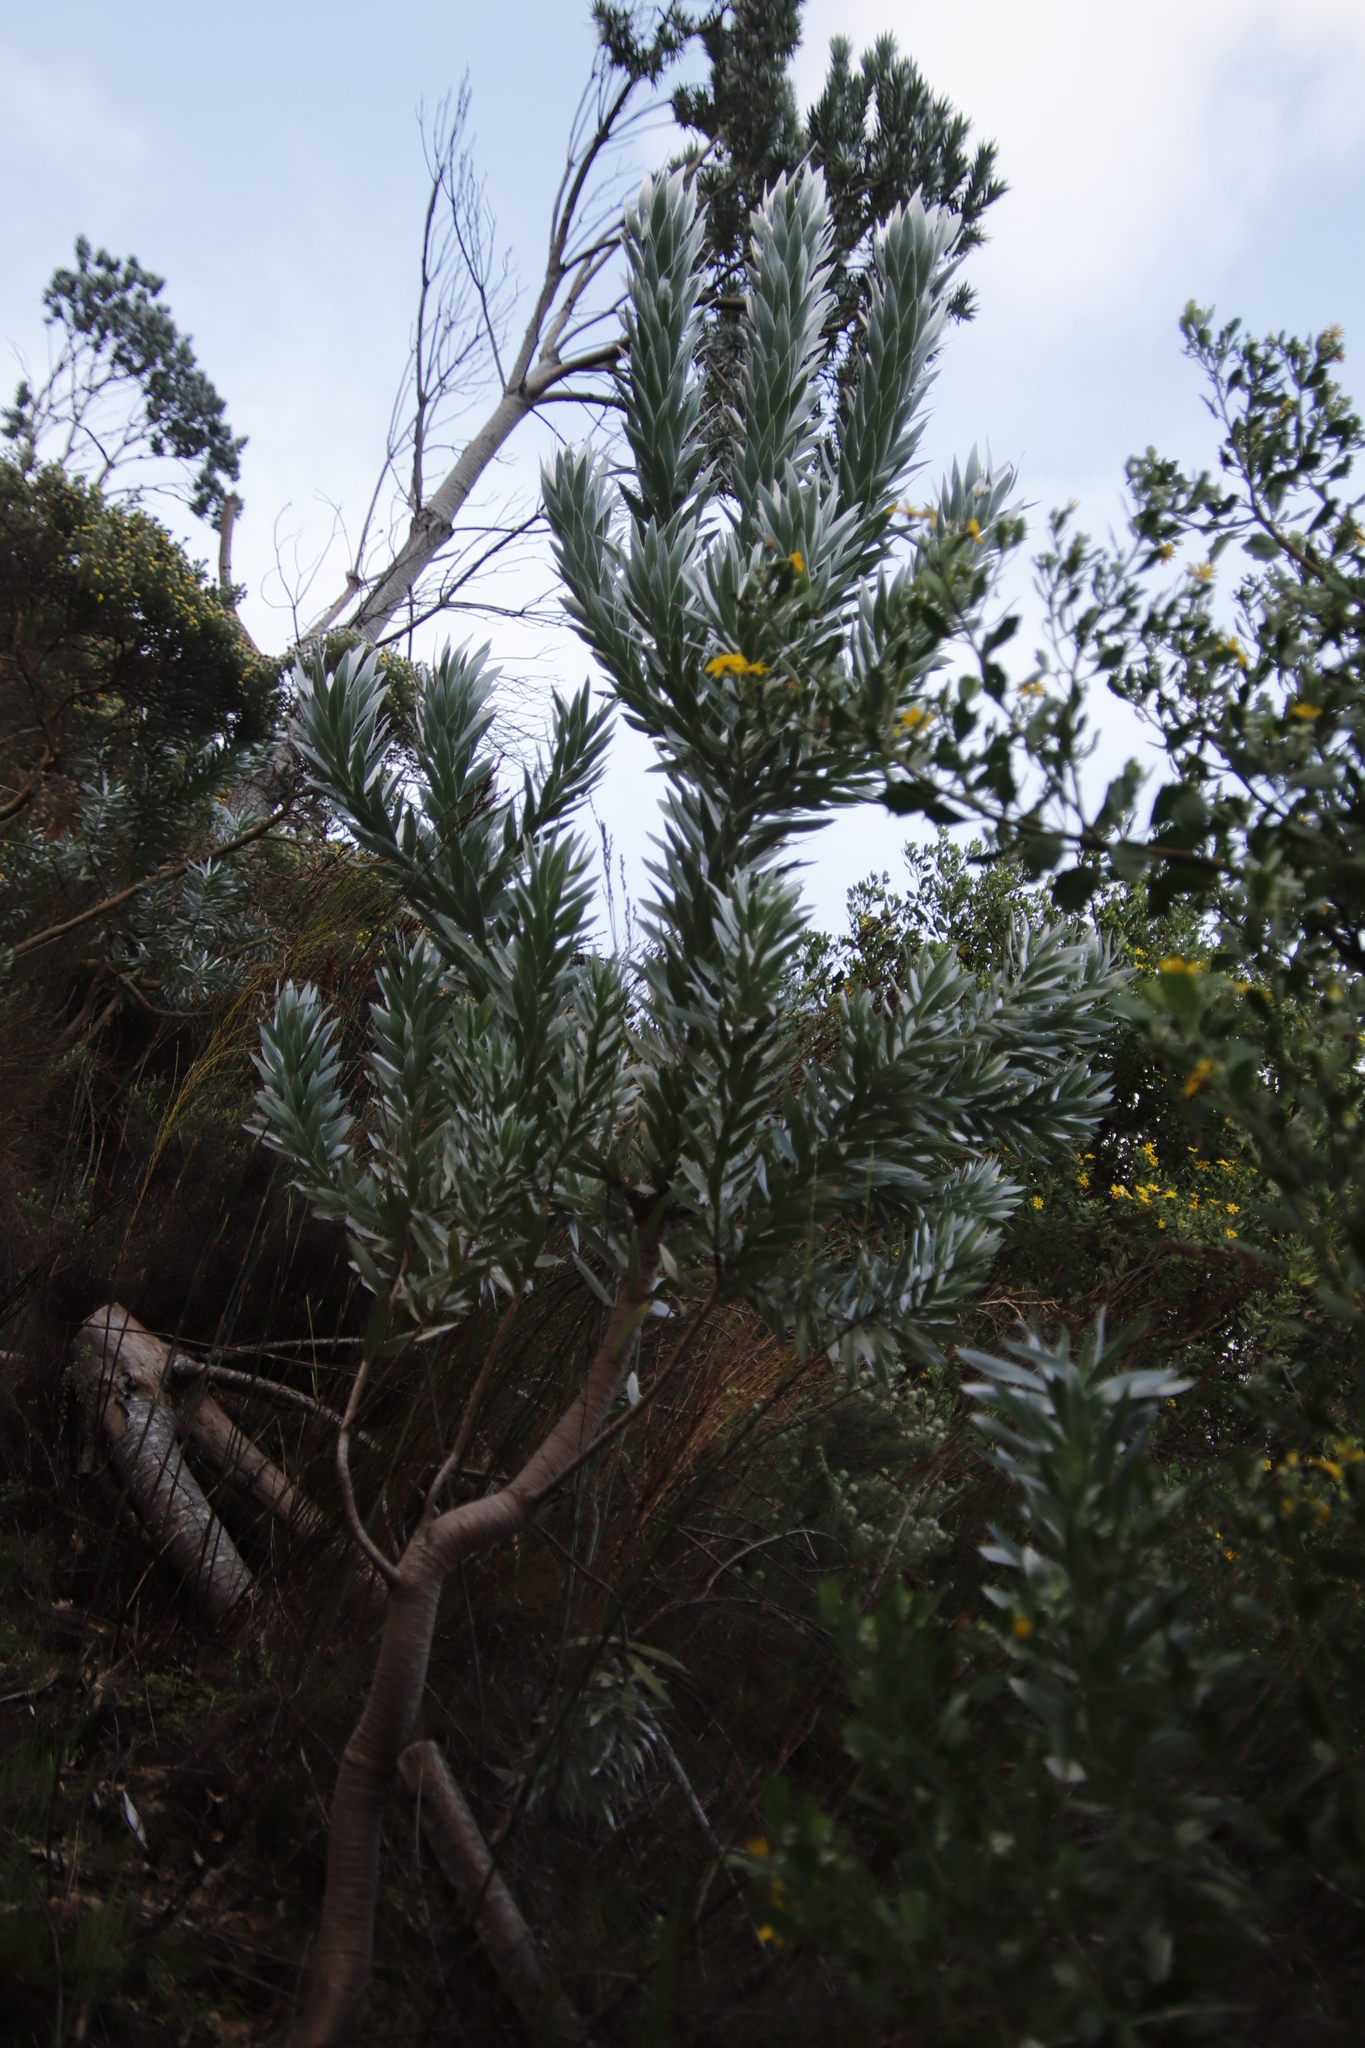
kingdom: Plantae
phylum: Tracheophyta
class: Magnoliopsida
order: Proteales
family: Proteaceae
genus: Leucadendron
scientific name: Leucadendron argenteum
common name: Cape silver tree
